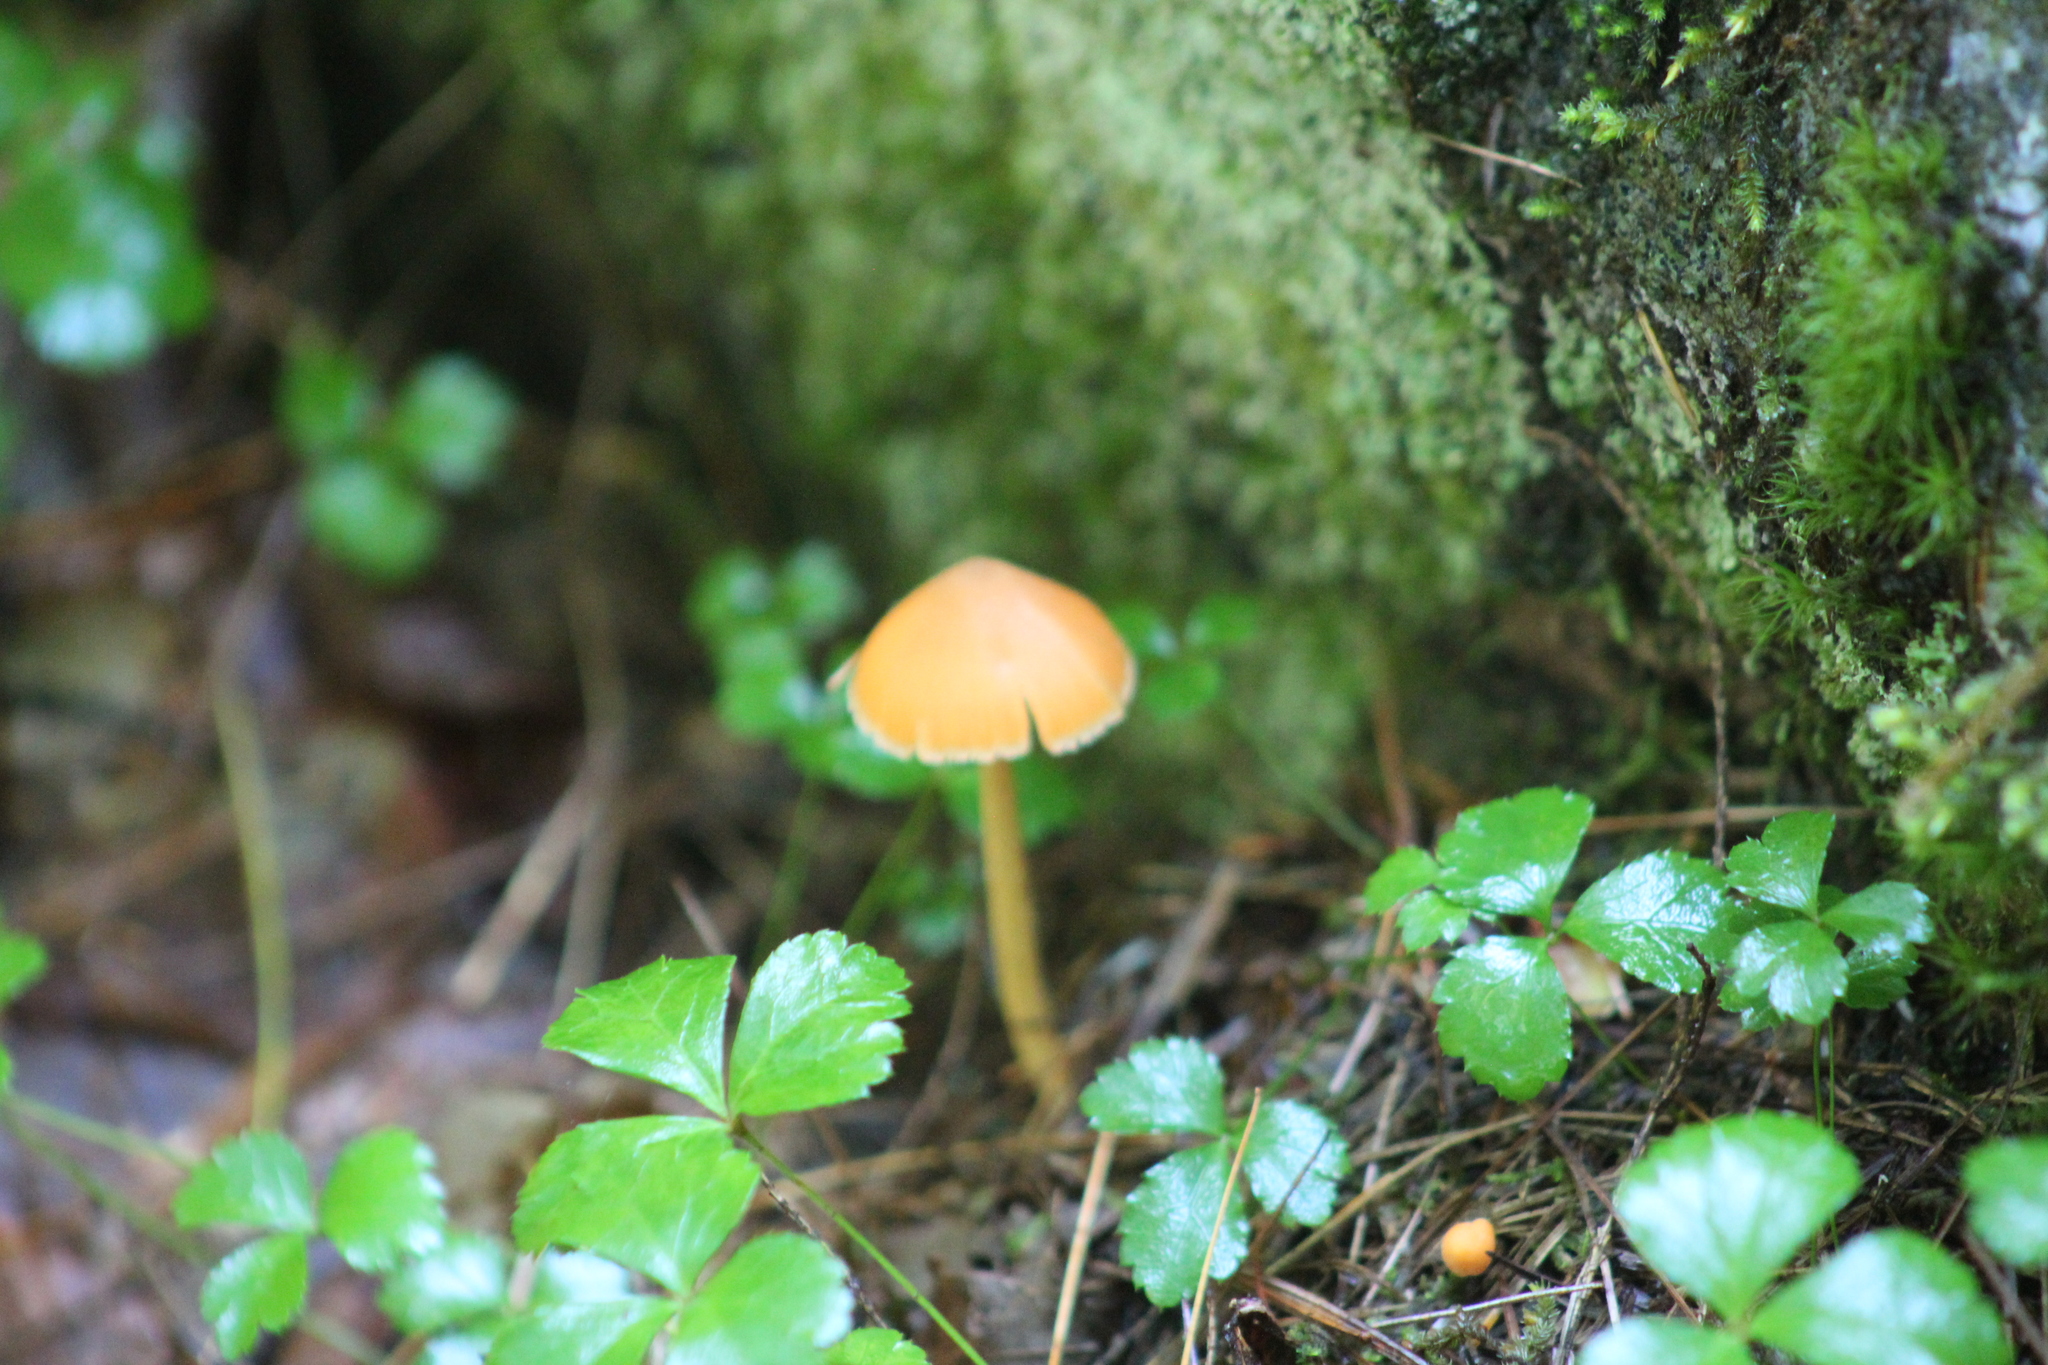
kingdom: Fungi
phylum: Basidiomycota
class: Agaricomycetes
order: Agaricales
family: Entolomataceae
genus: Entoloma
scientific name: Entoloma quadratum
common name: Salmon pinkgill
